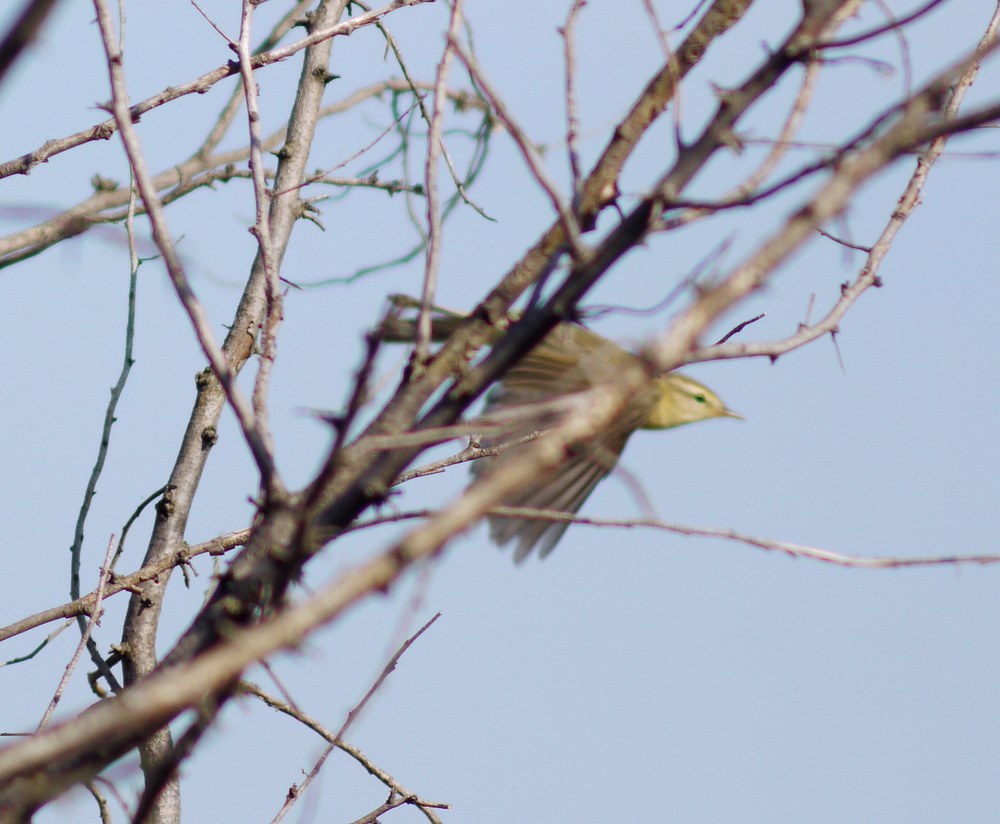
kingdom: Animalia
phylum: Chordata
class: Aves
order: Passeriformes
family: Phylloscopidae
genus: Phylloscopus
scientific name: Phylloscopus trochilus
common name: Willow warbler
